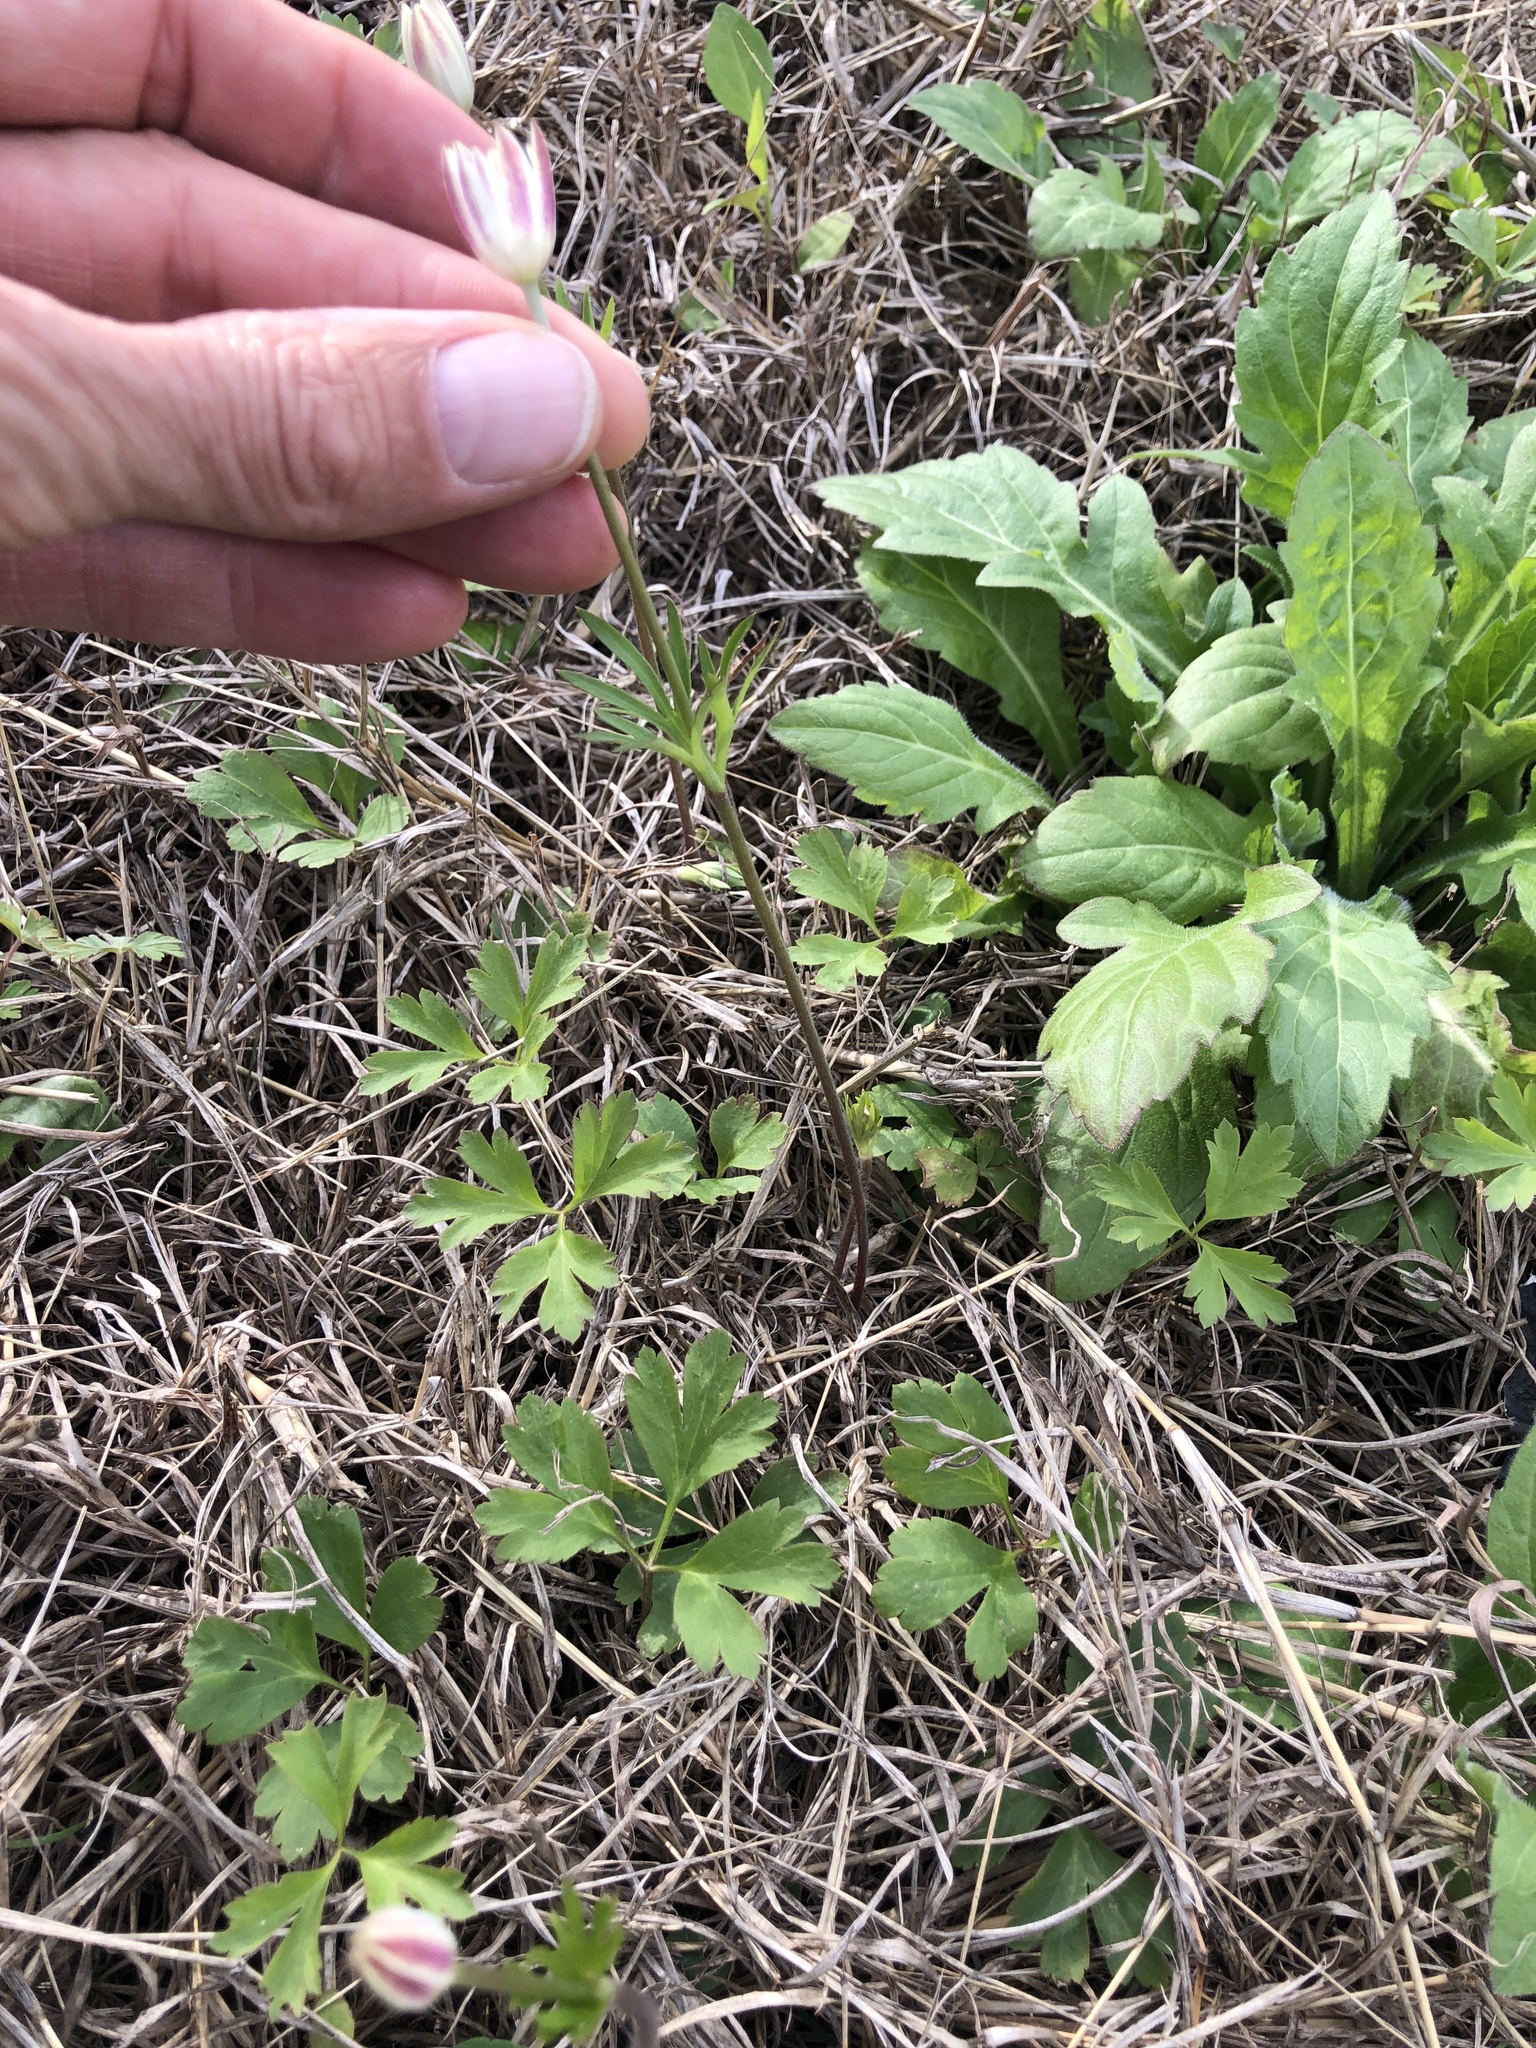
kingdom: Plantae
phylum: Tracheophyta
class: Magnoliopsida
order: Ranunculales
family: Ranunculaceae
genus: Anemone
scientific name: Anemone berlandieri
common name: Ten-petal anemone
